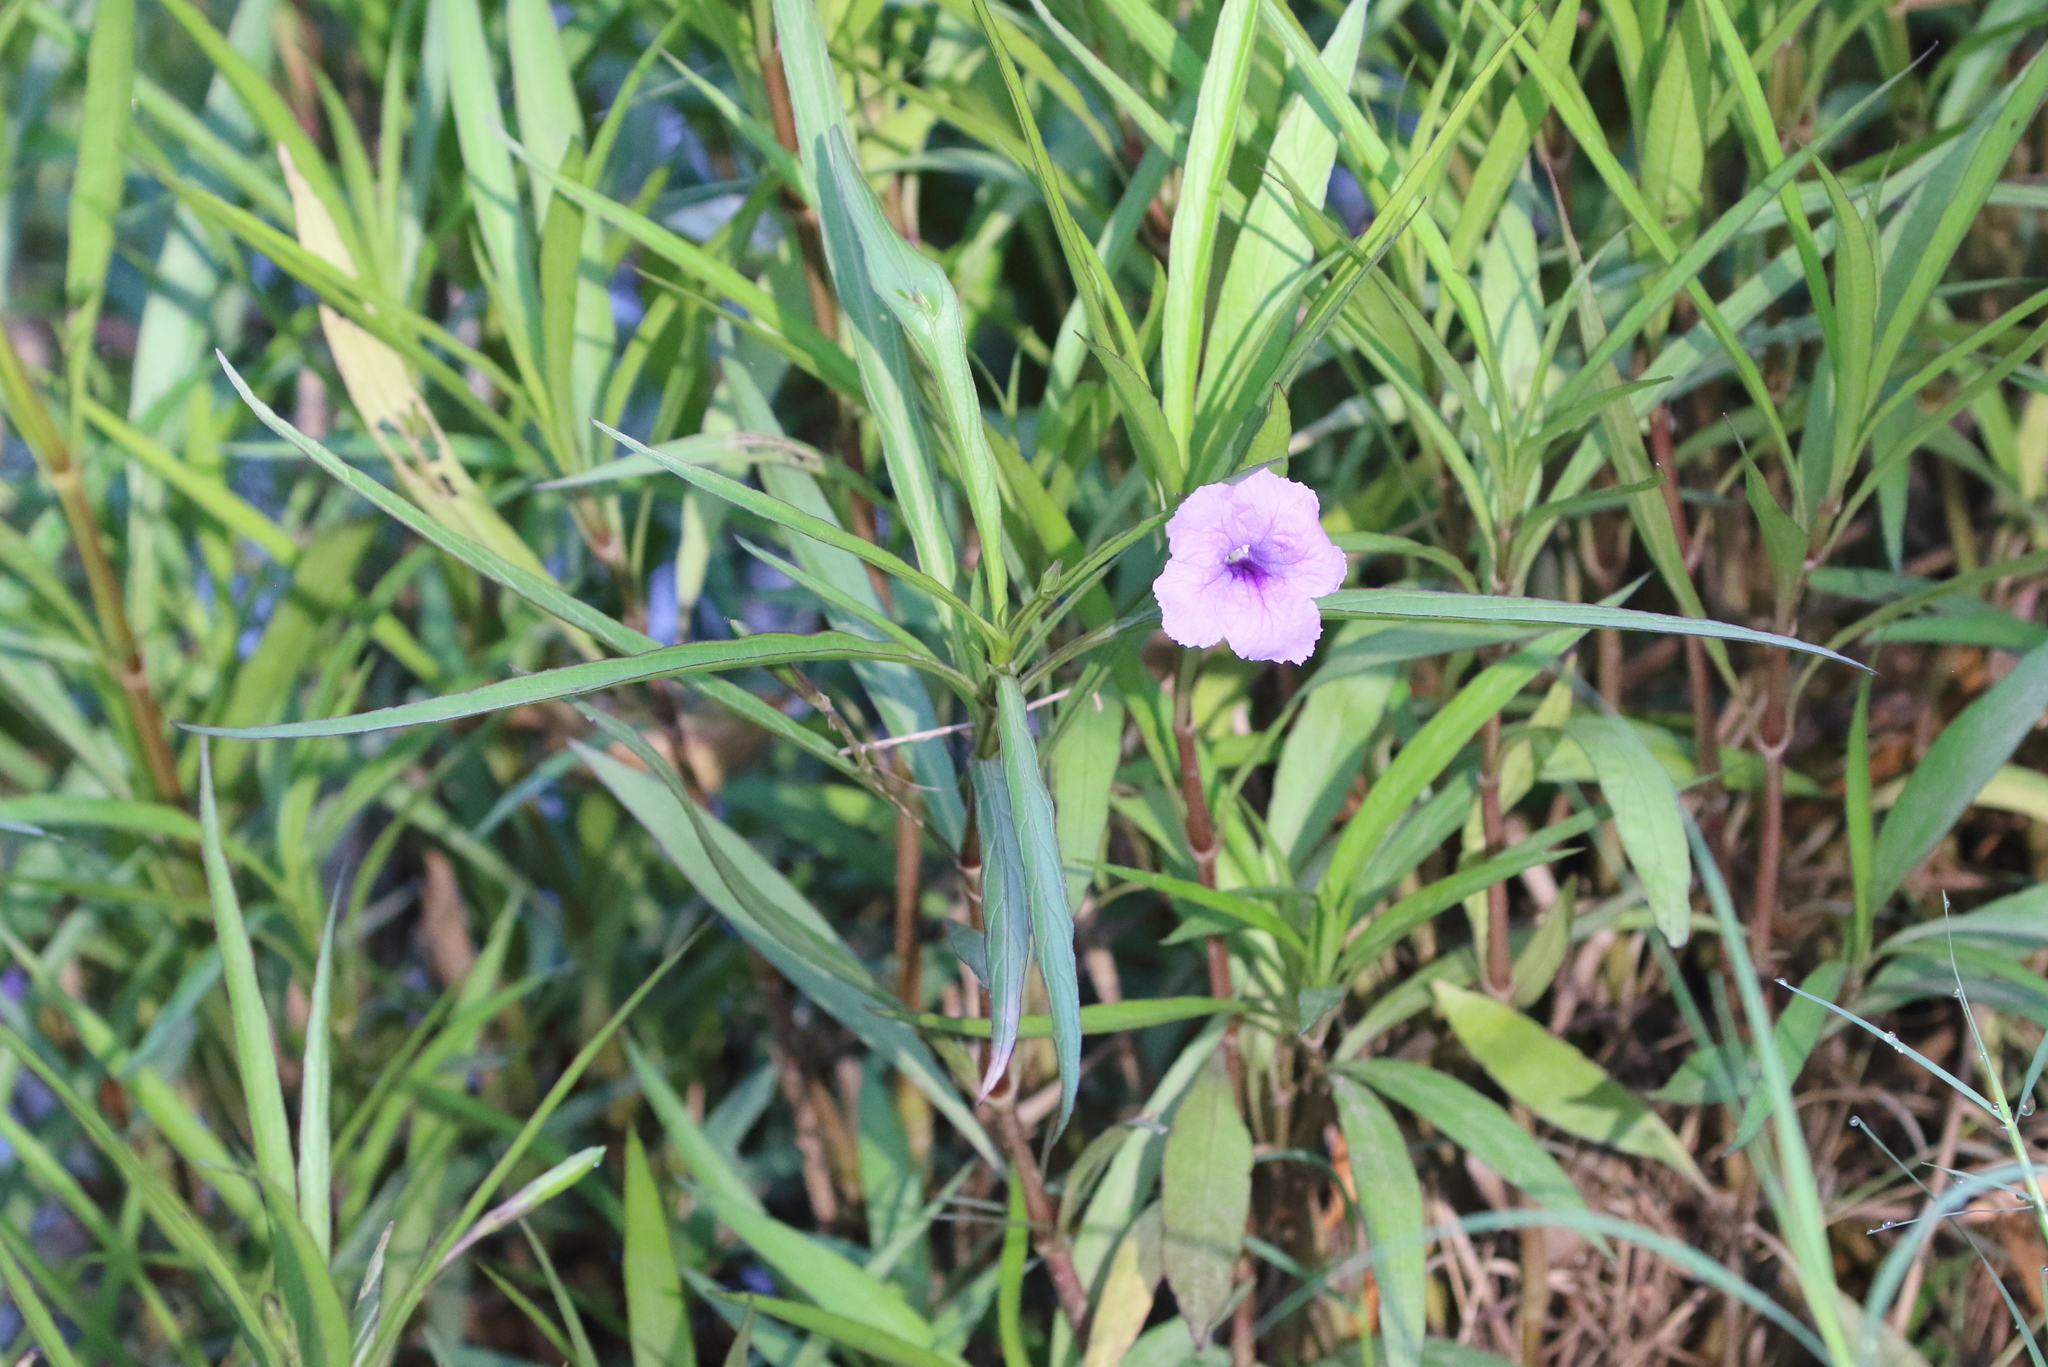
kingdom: Plantae
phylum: Tracheophyta
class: Magnoliopsida
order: Lamiales
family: Acanthaceae
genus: Ruellia
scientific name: Ruellia simplex
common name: Softseed wild petunia
